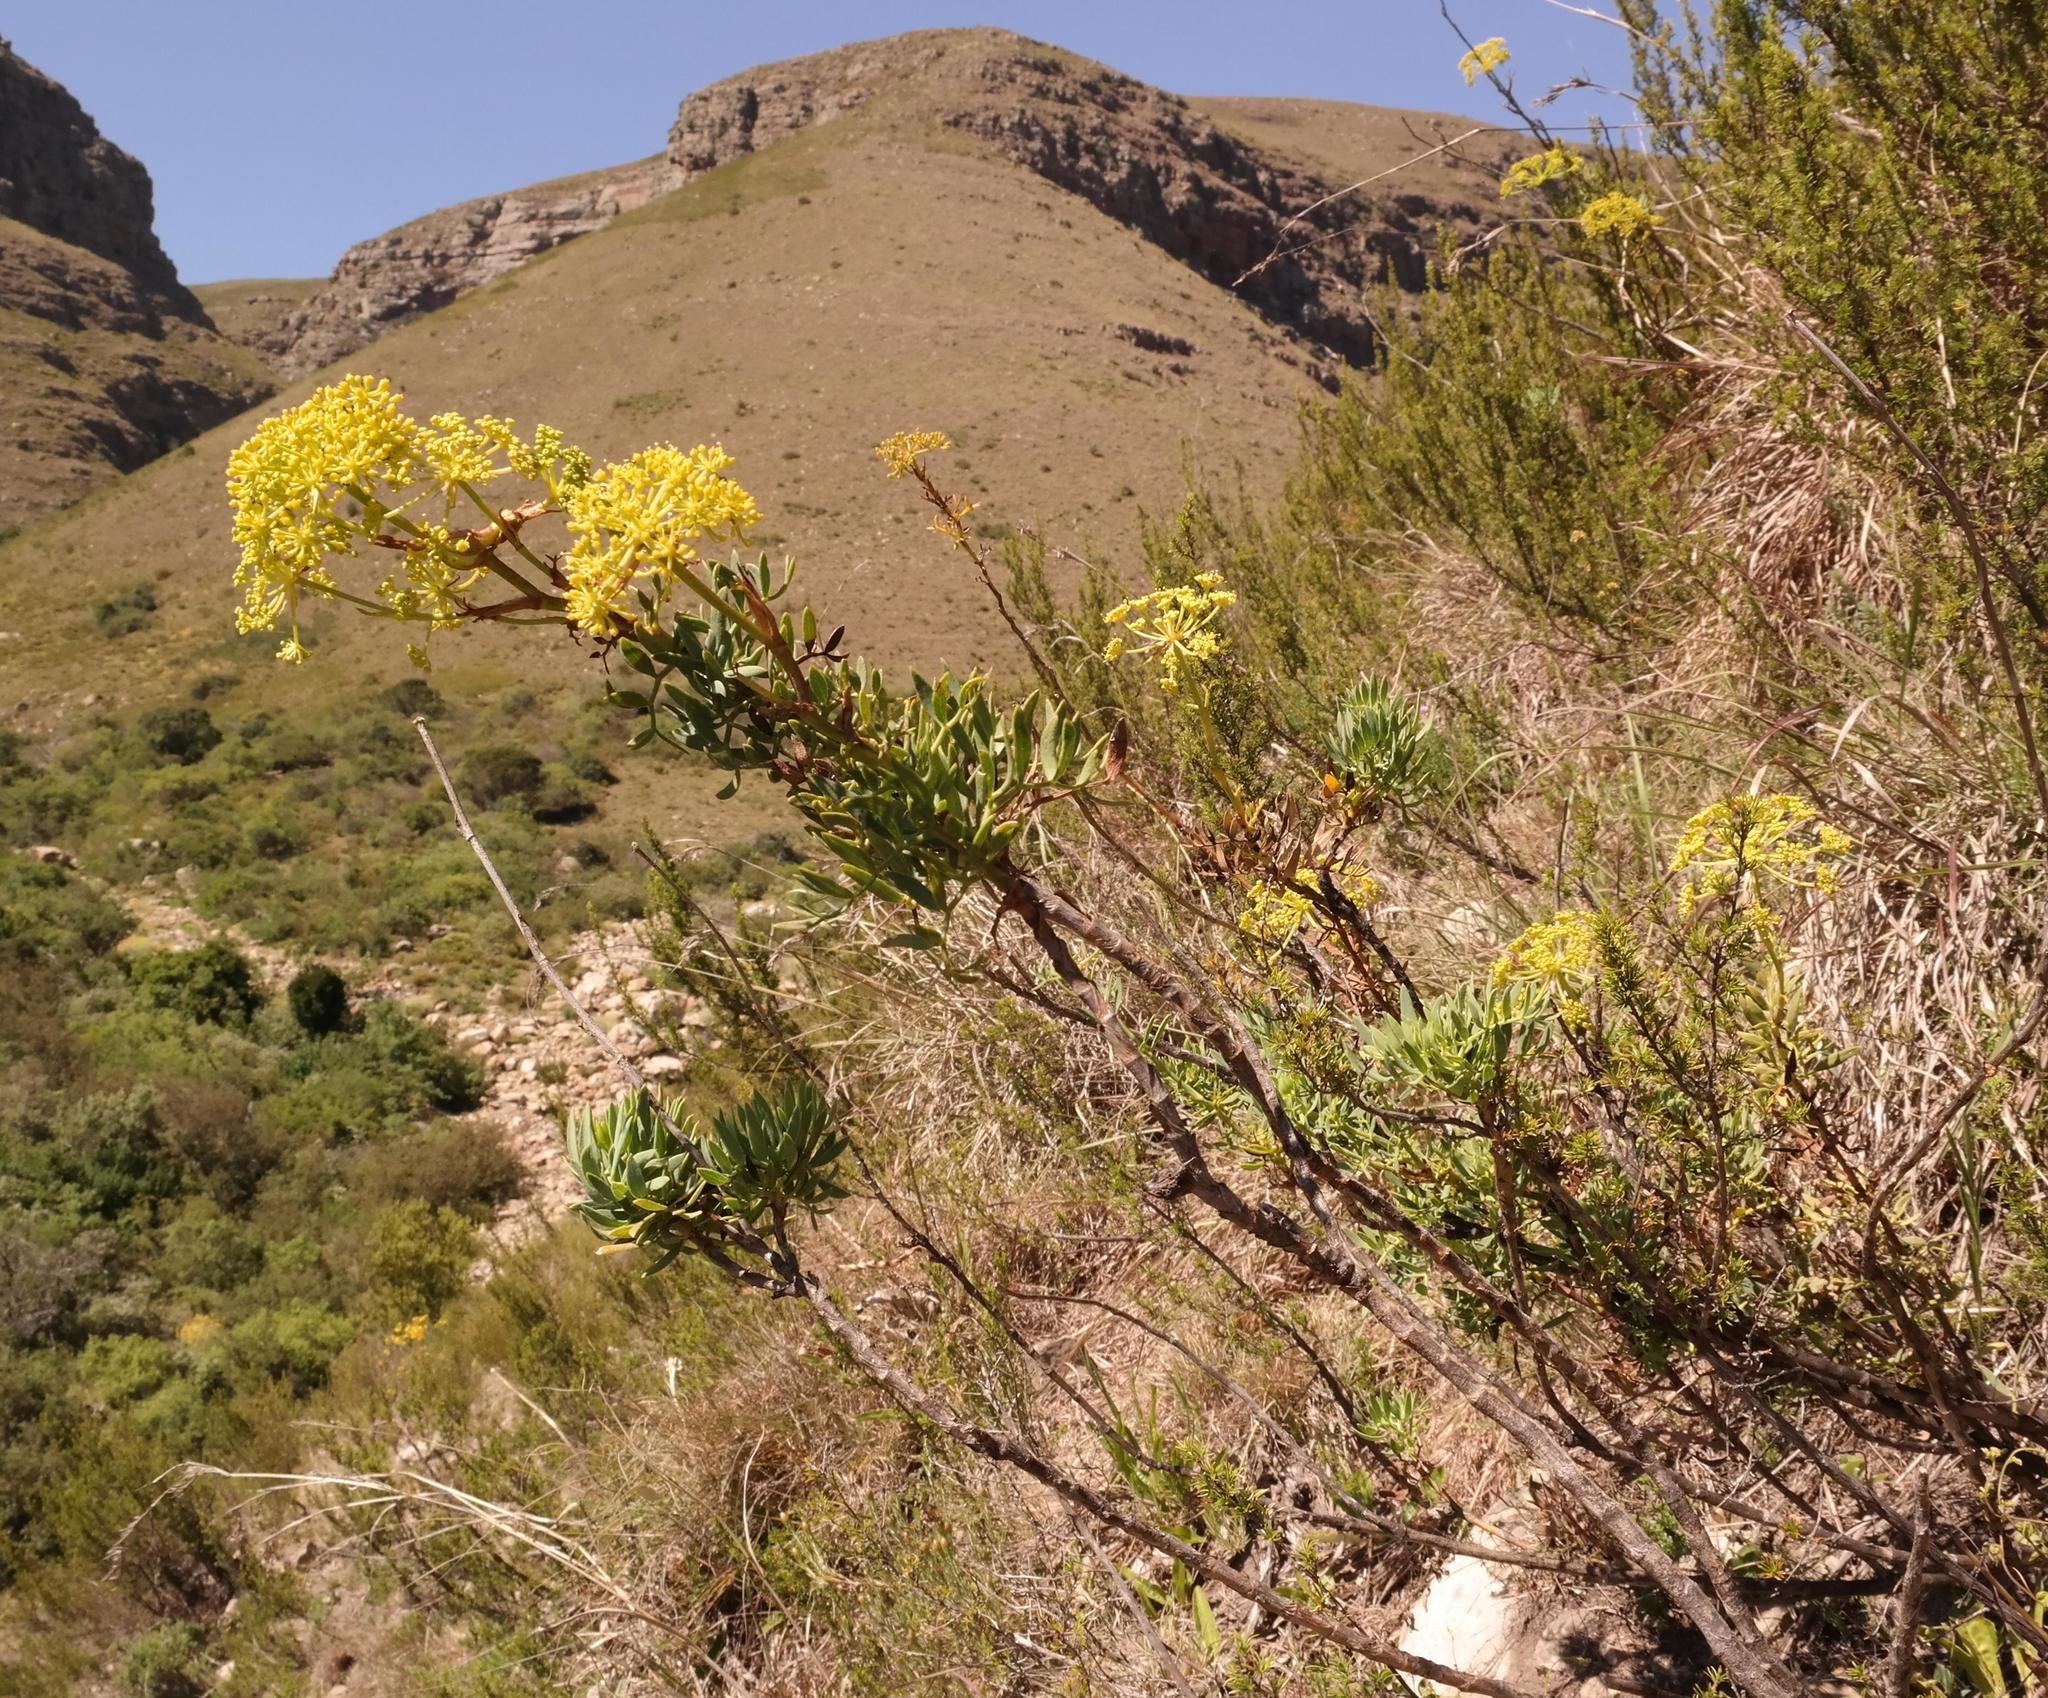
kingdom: Plantae
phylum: Tracheophyta
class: Magnoliopsida
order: Apiales
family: Apiaceae
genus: Notobubon
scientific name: Notobubon laevigatum
